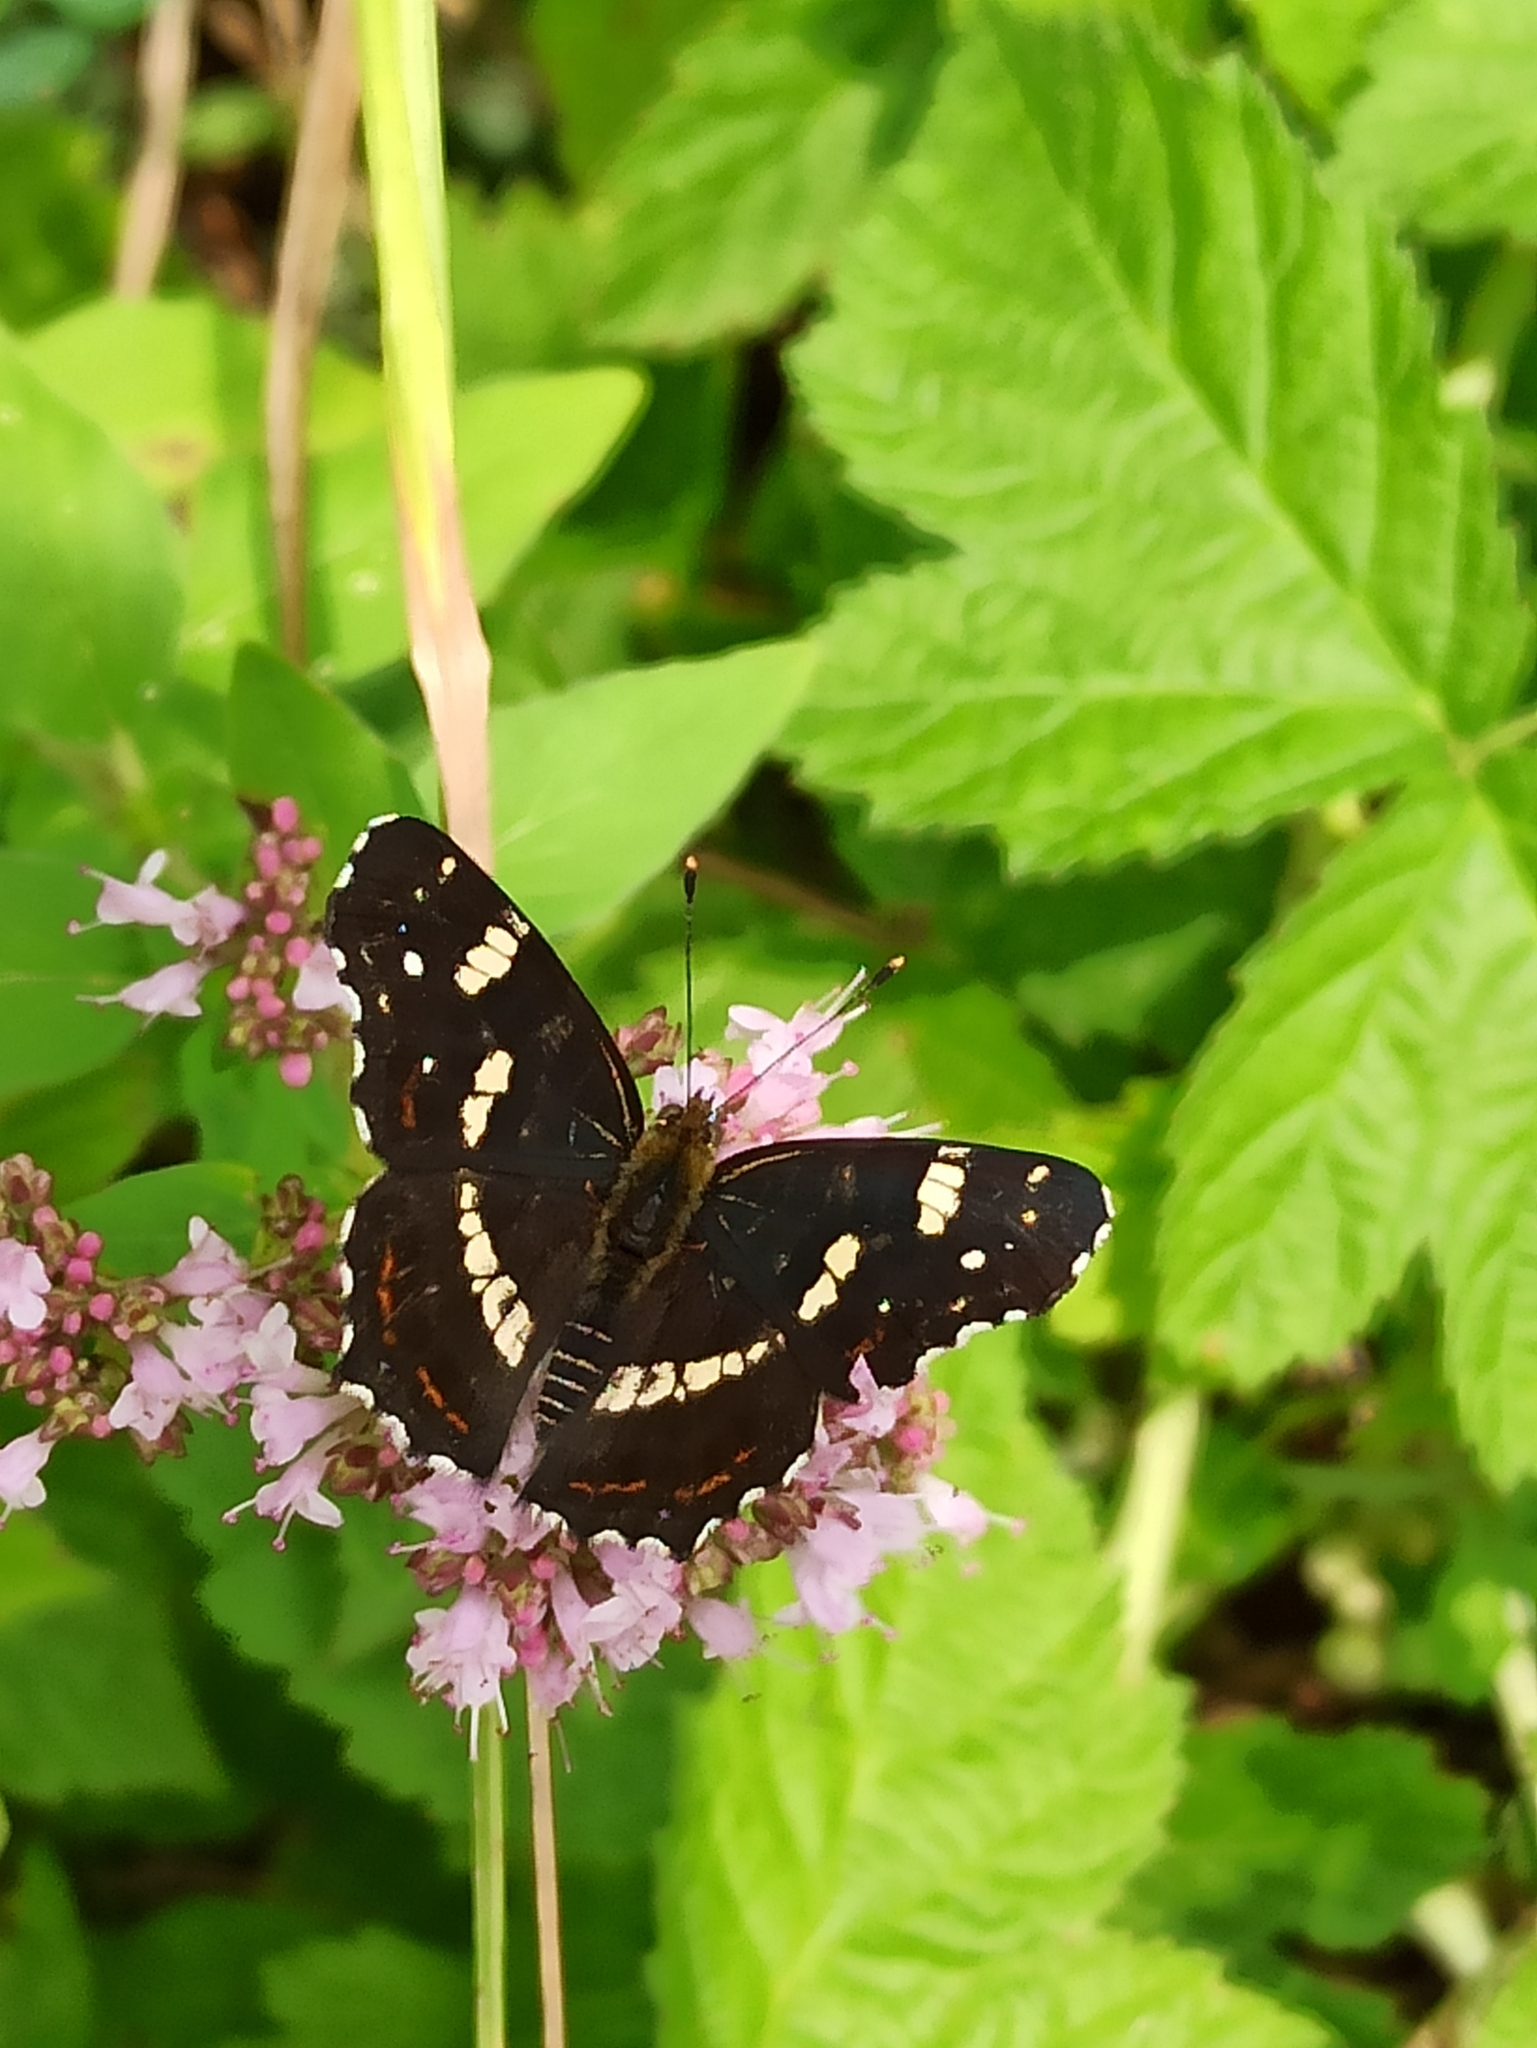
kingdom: Animalia
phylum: Arthropoda
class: Insecta
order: Lepidoptera
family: Nymphalidae
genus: Araschnia
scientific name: Araschnia levana
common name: Map butterfly
